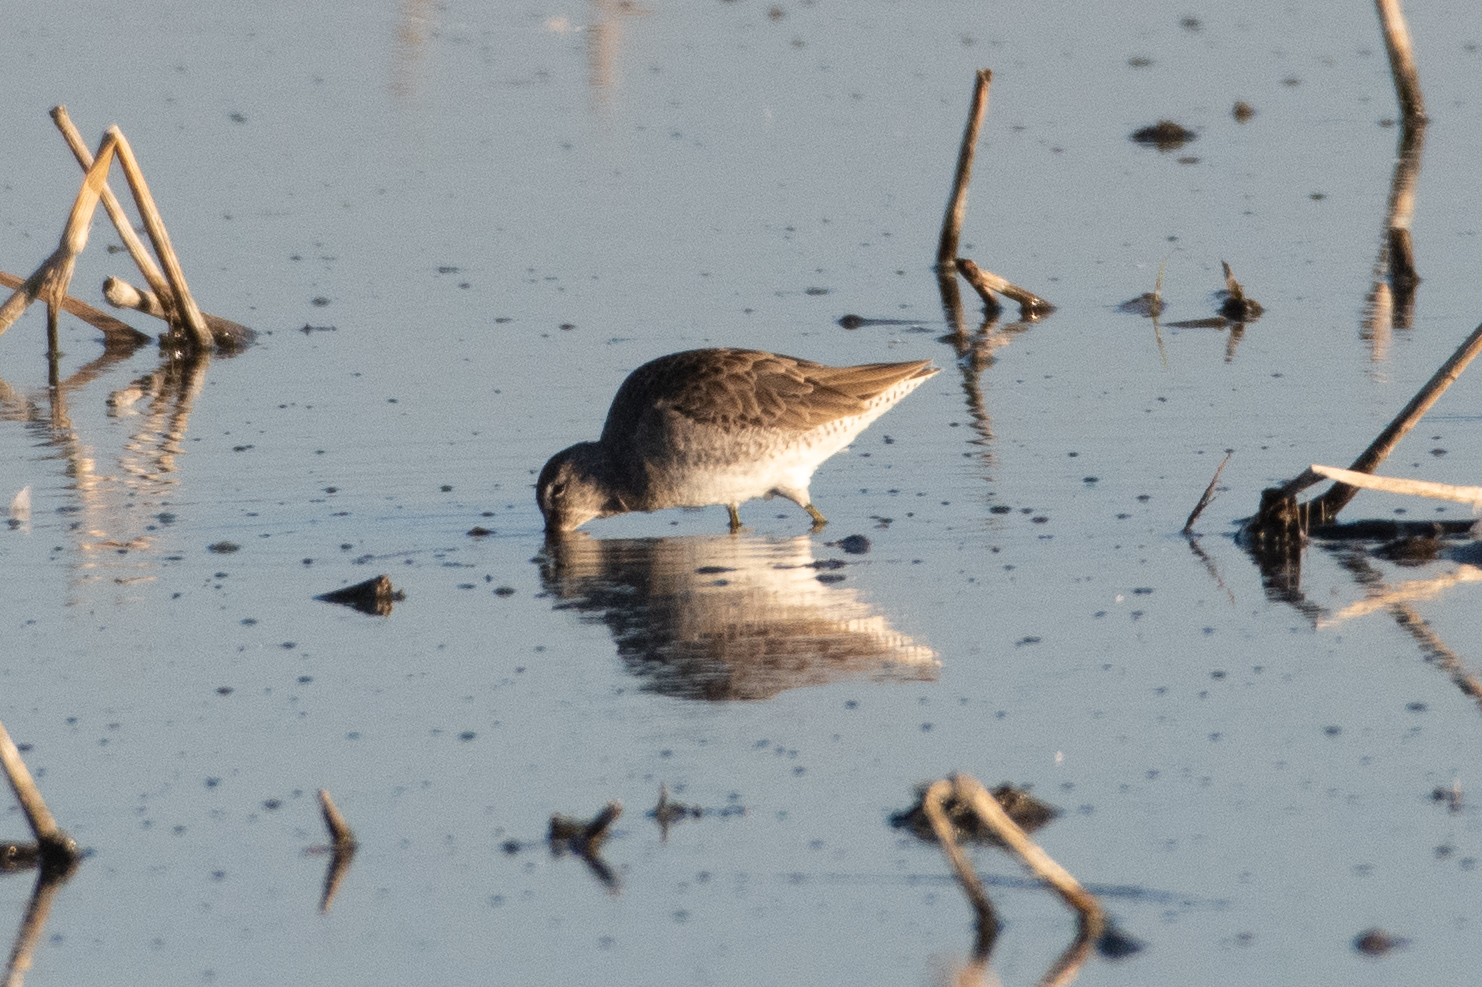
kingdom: Animalia
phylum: Chordata
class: Aves
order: Charadriiformes
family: Scolopacidae
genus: Limnodromus
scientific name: Limnodromus scolopaceus
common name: Long-billed dowitcher
